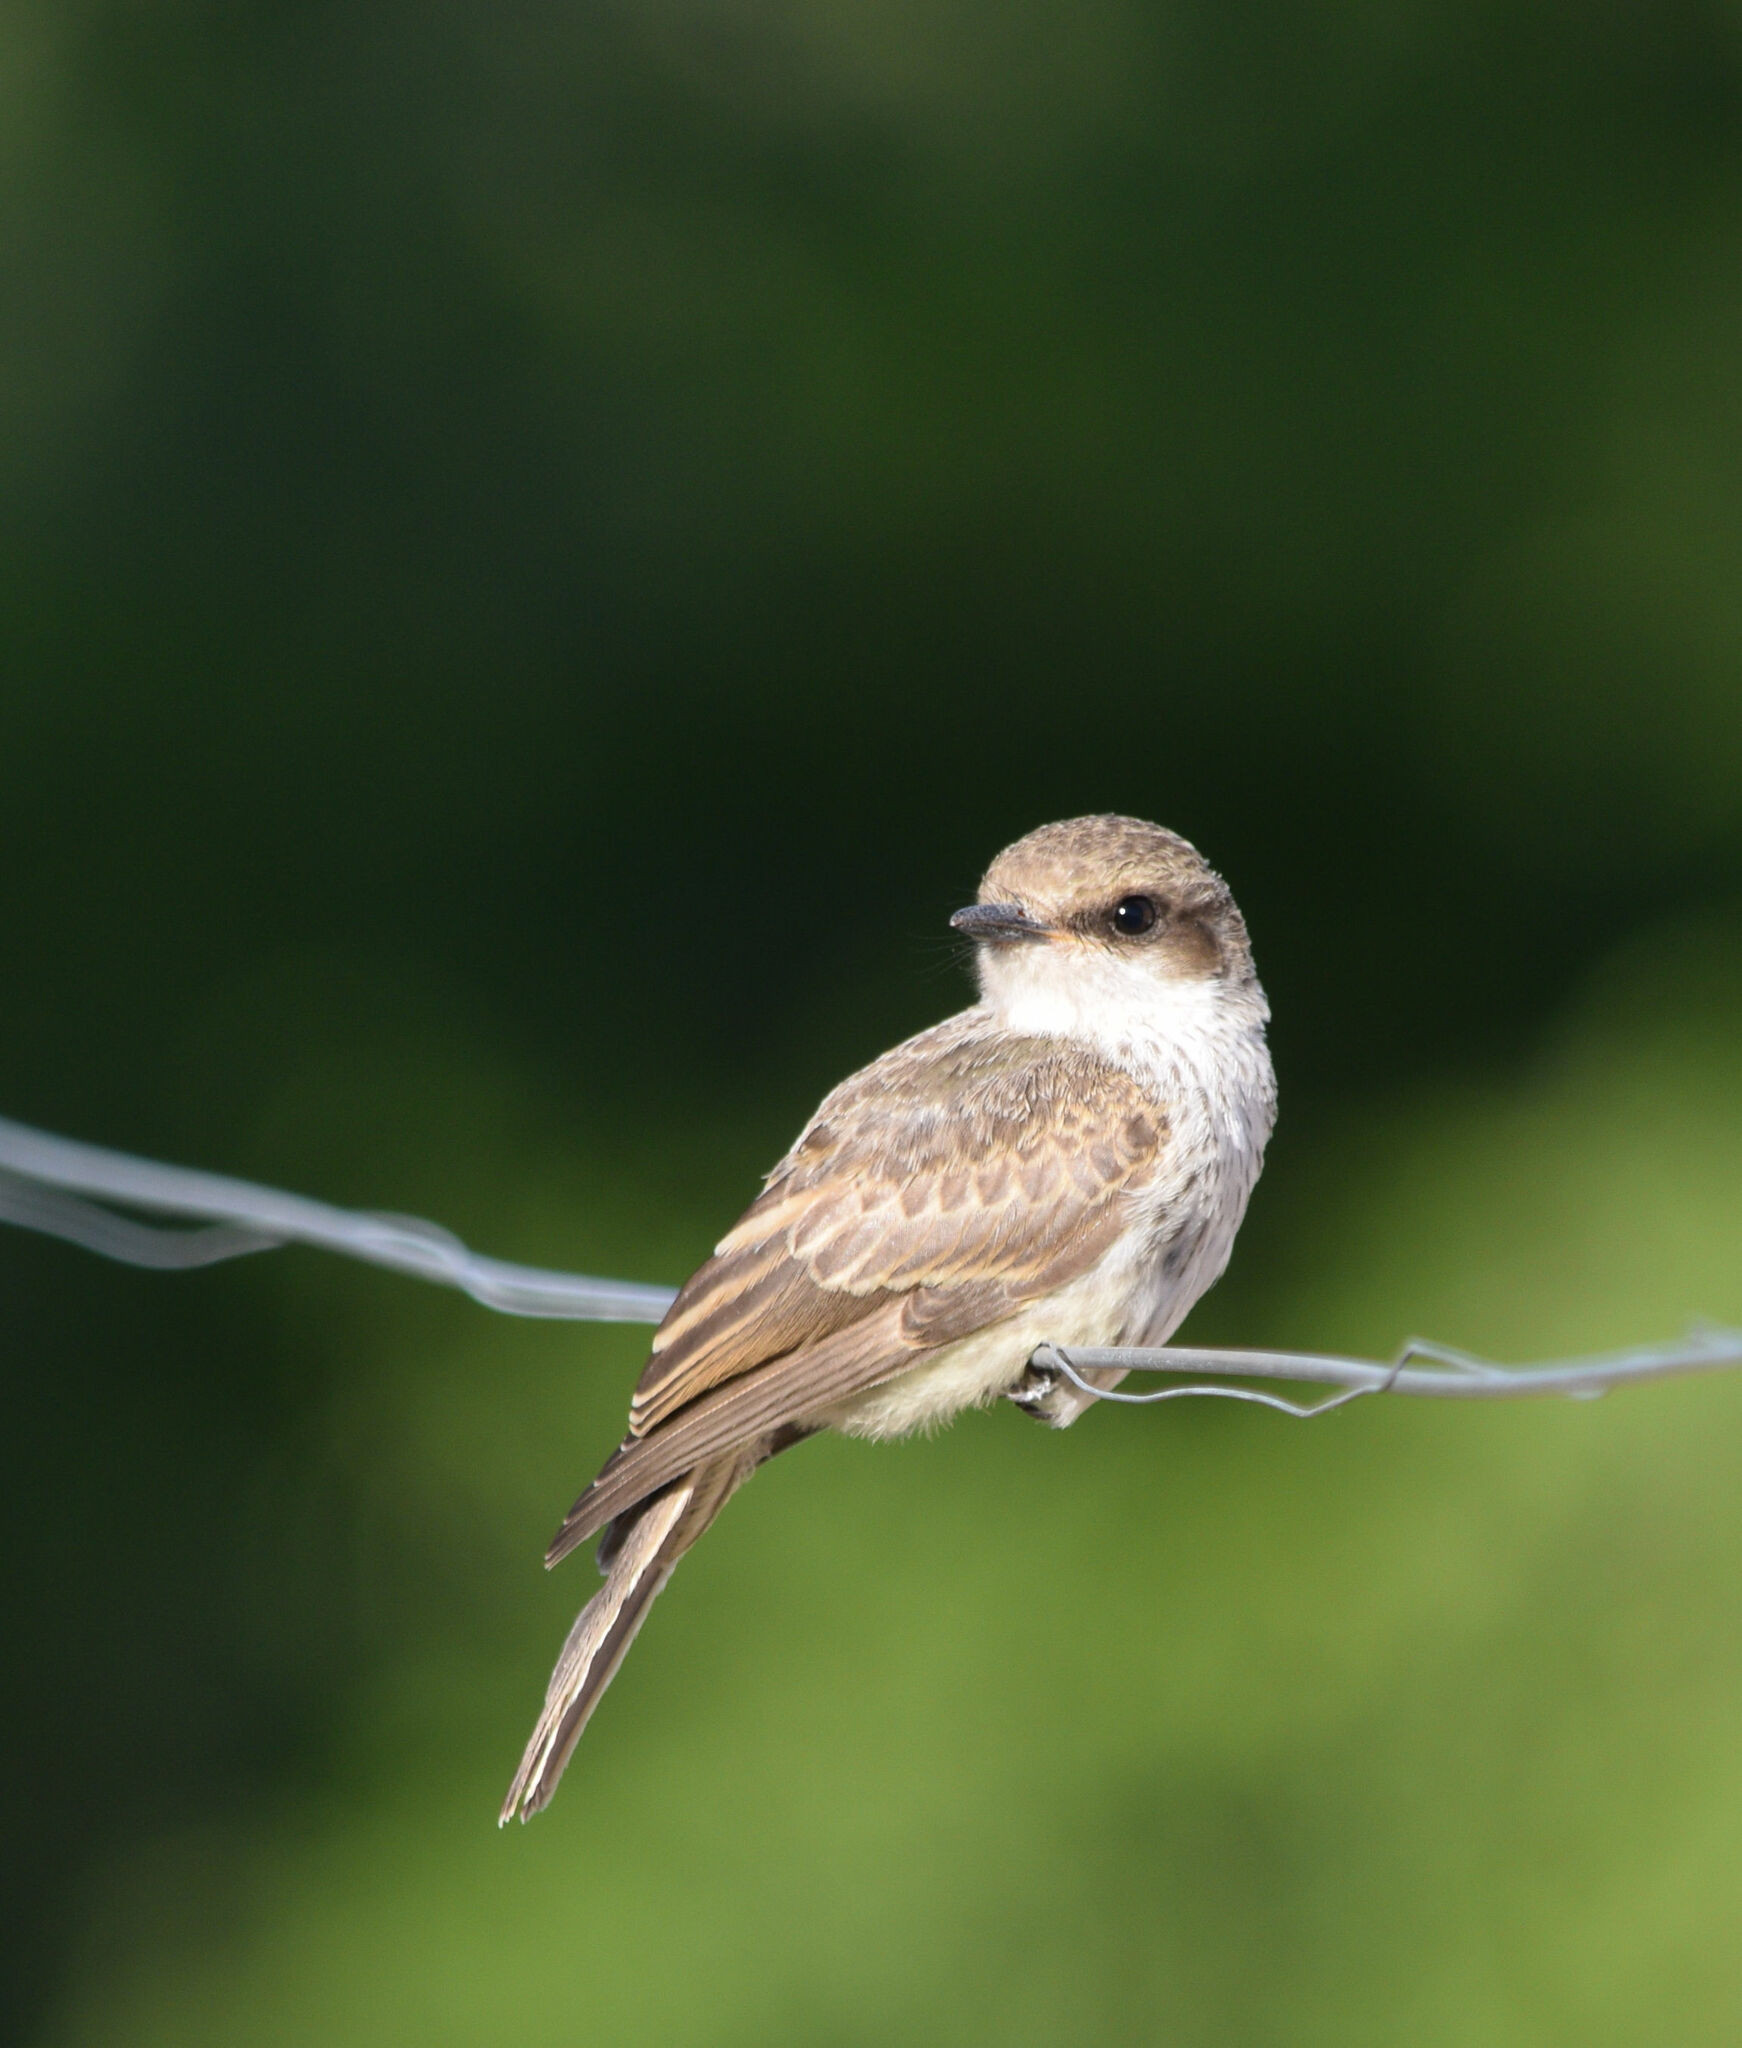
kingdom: Animalia
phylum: Chordata
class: Aves
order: Passeriformes
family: Tyrannidae
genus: Pyrocephalus
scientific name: Pyrocephalus rubinus
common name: Vermilion flycatcher
